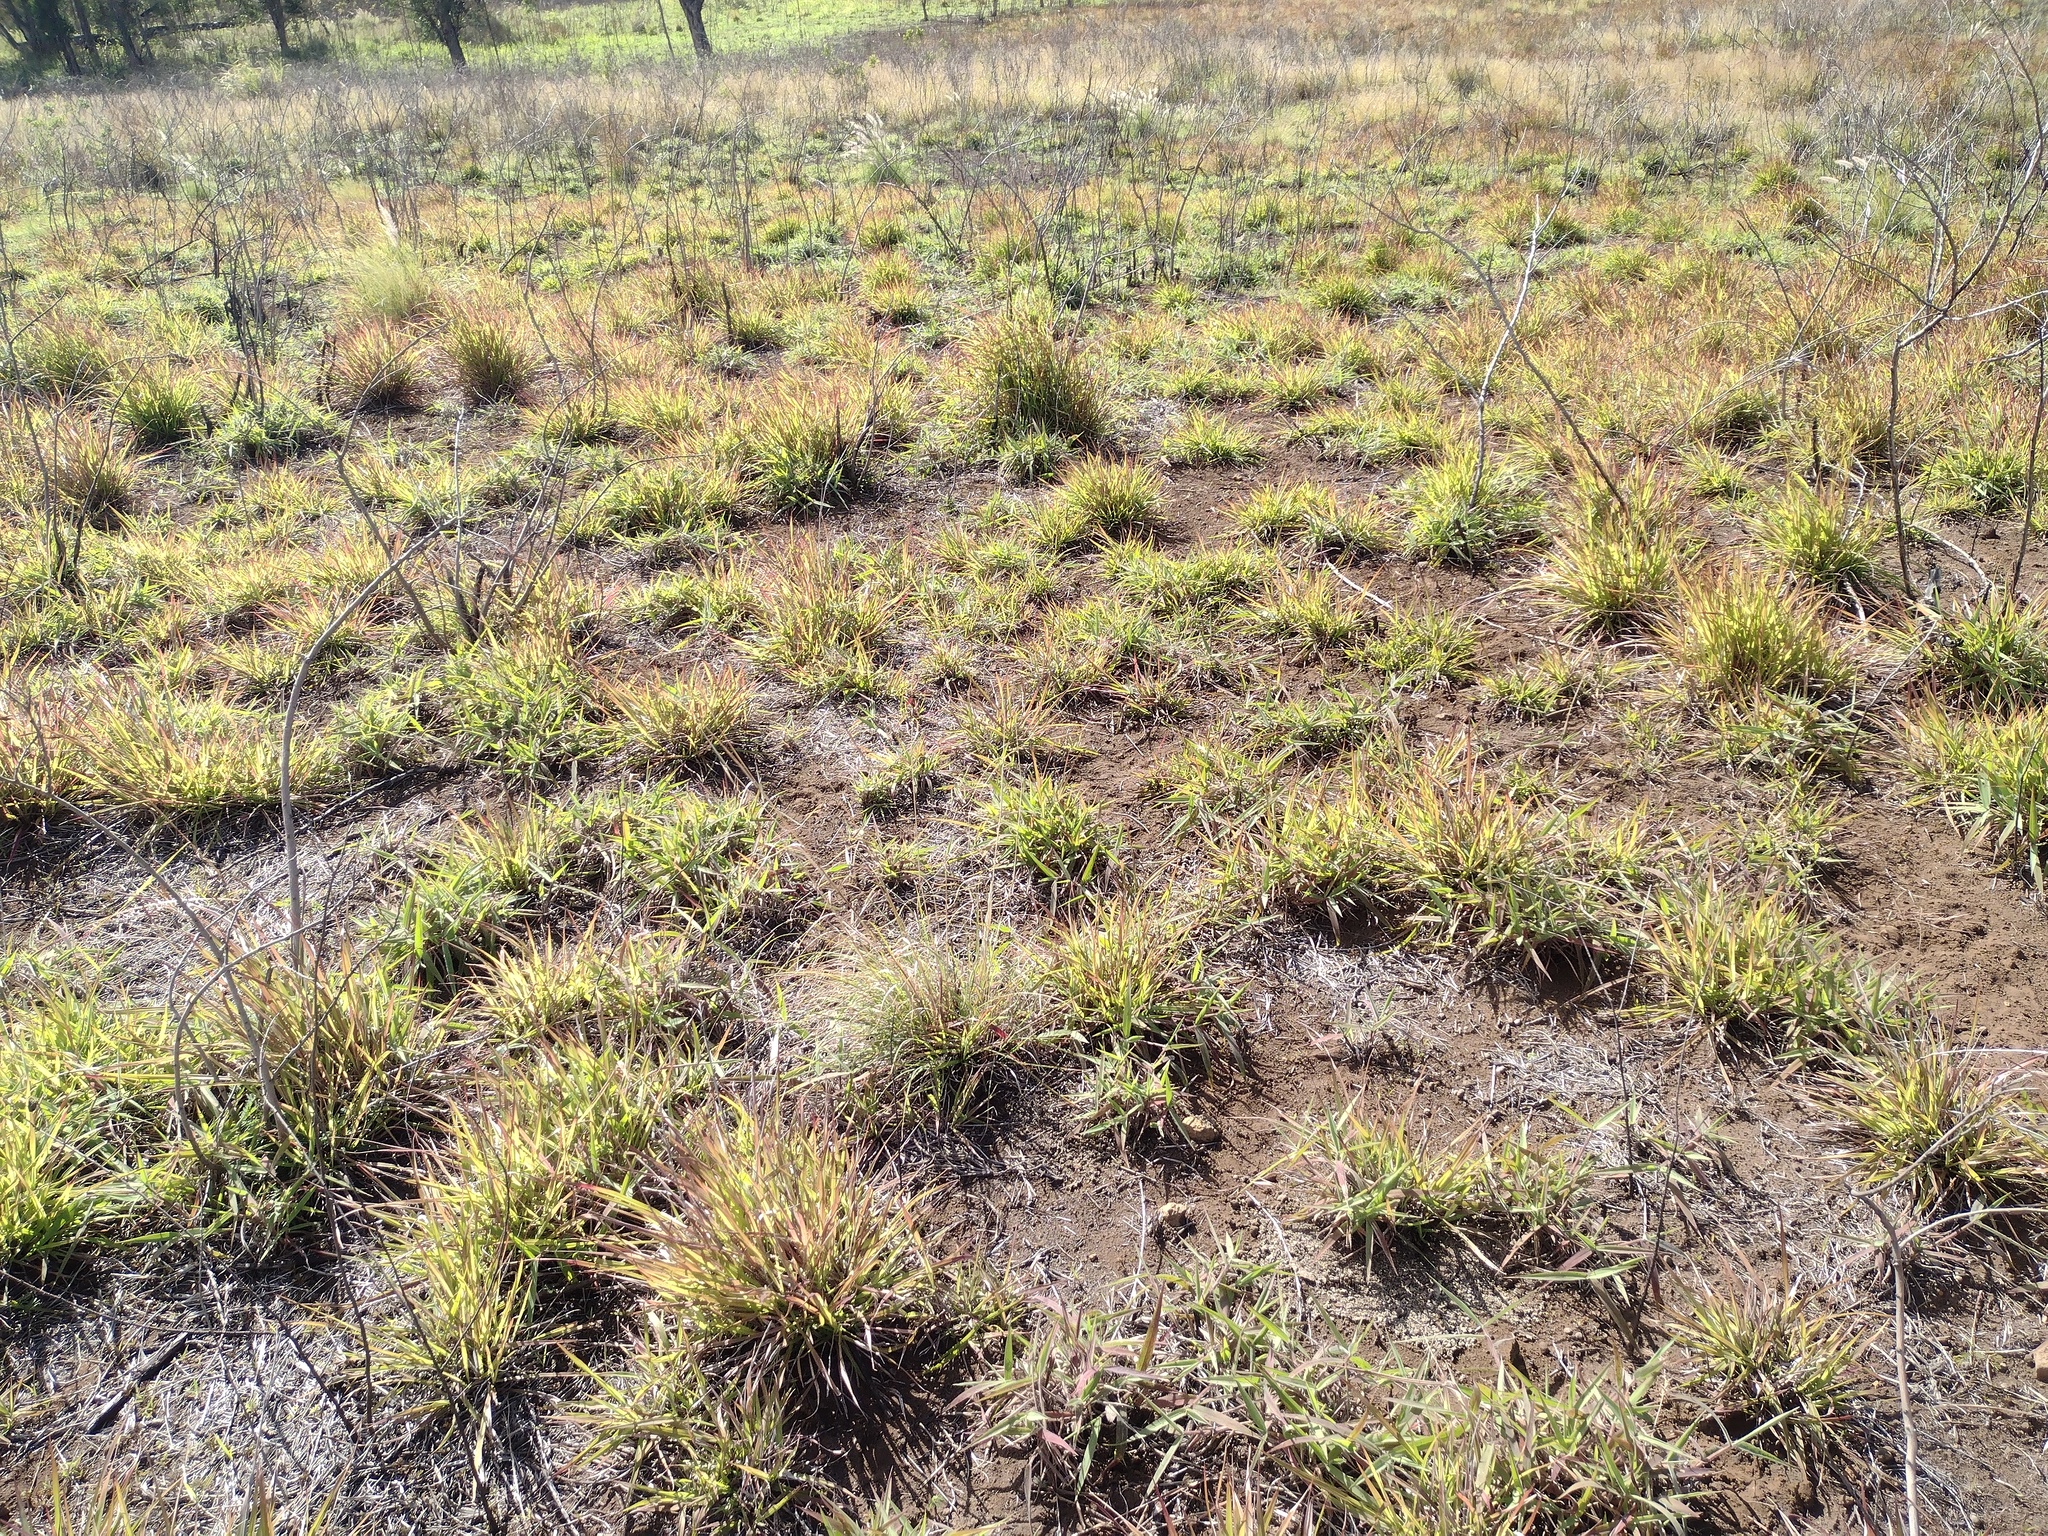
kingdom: Plantae
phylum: Tracheophyta
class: Liliopsida
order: Poales
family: Poaceae
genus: Cenchrus
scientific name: Cenchrus setaceus
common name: Crimson fountaingrass
